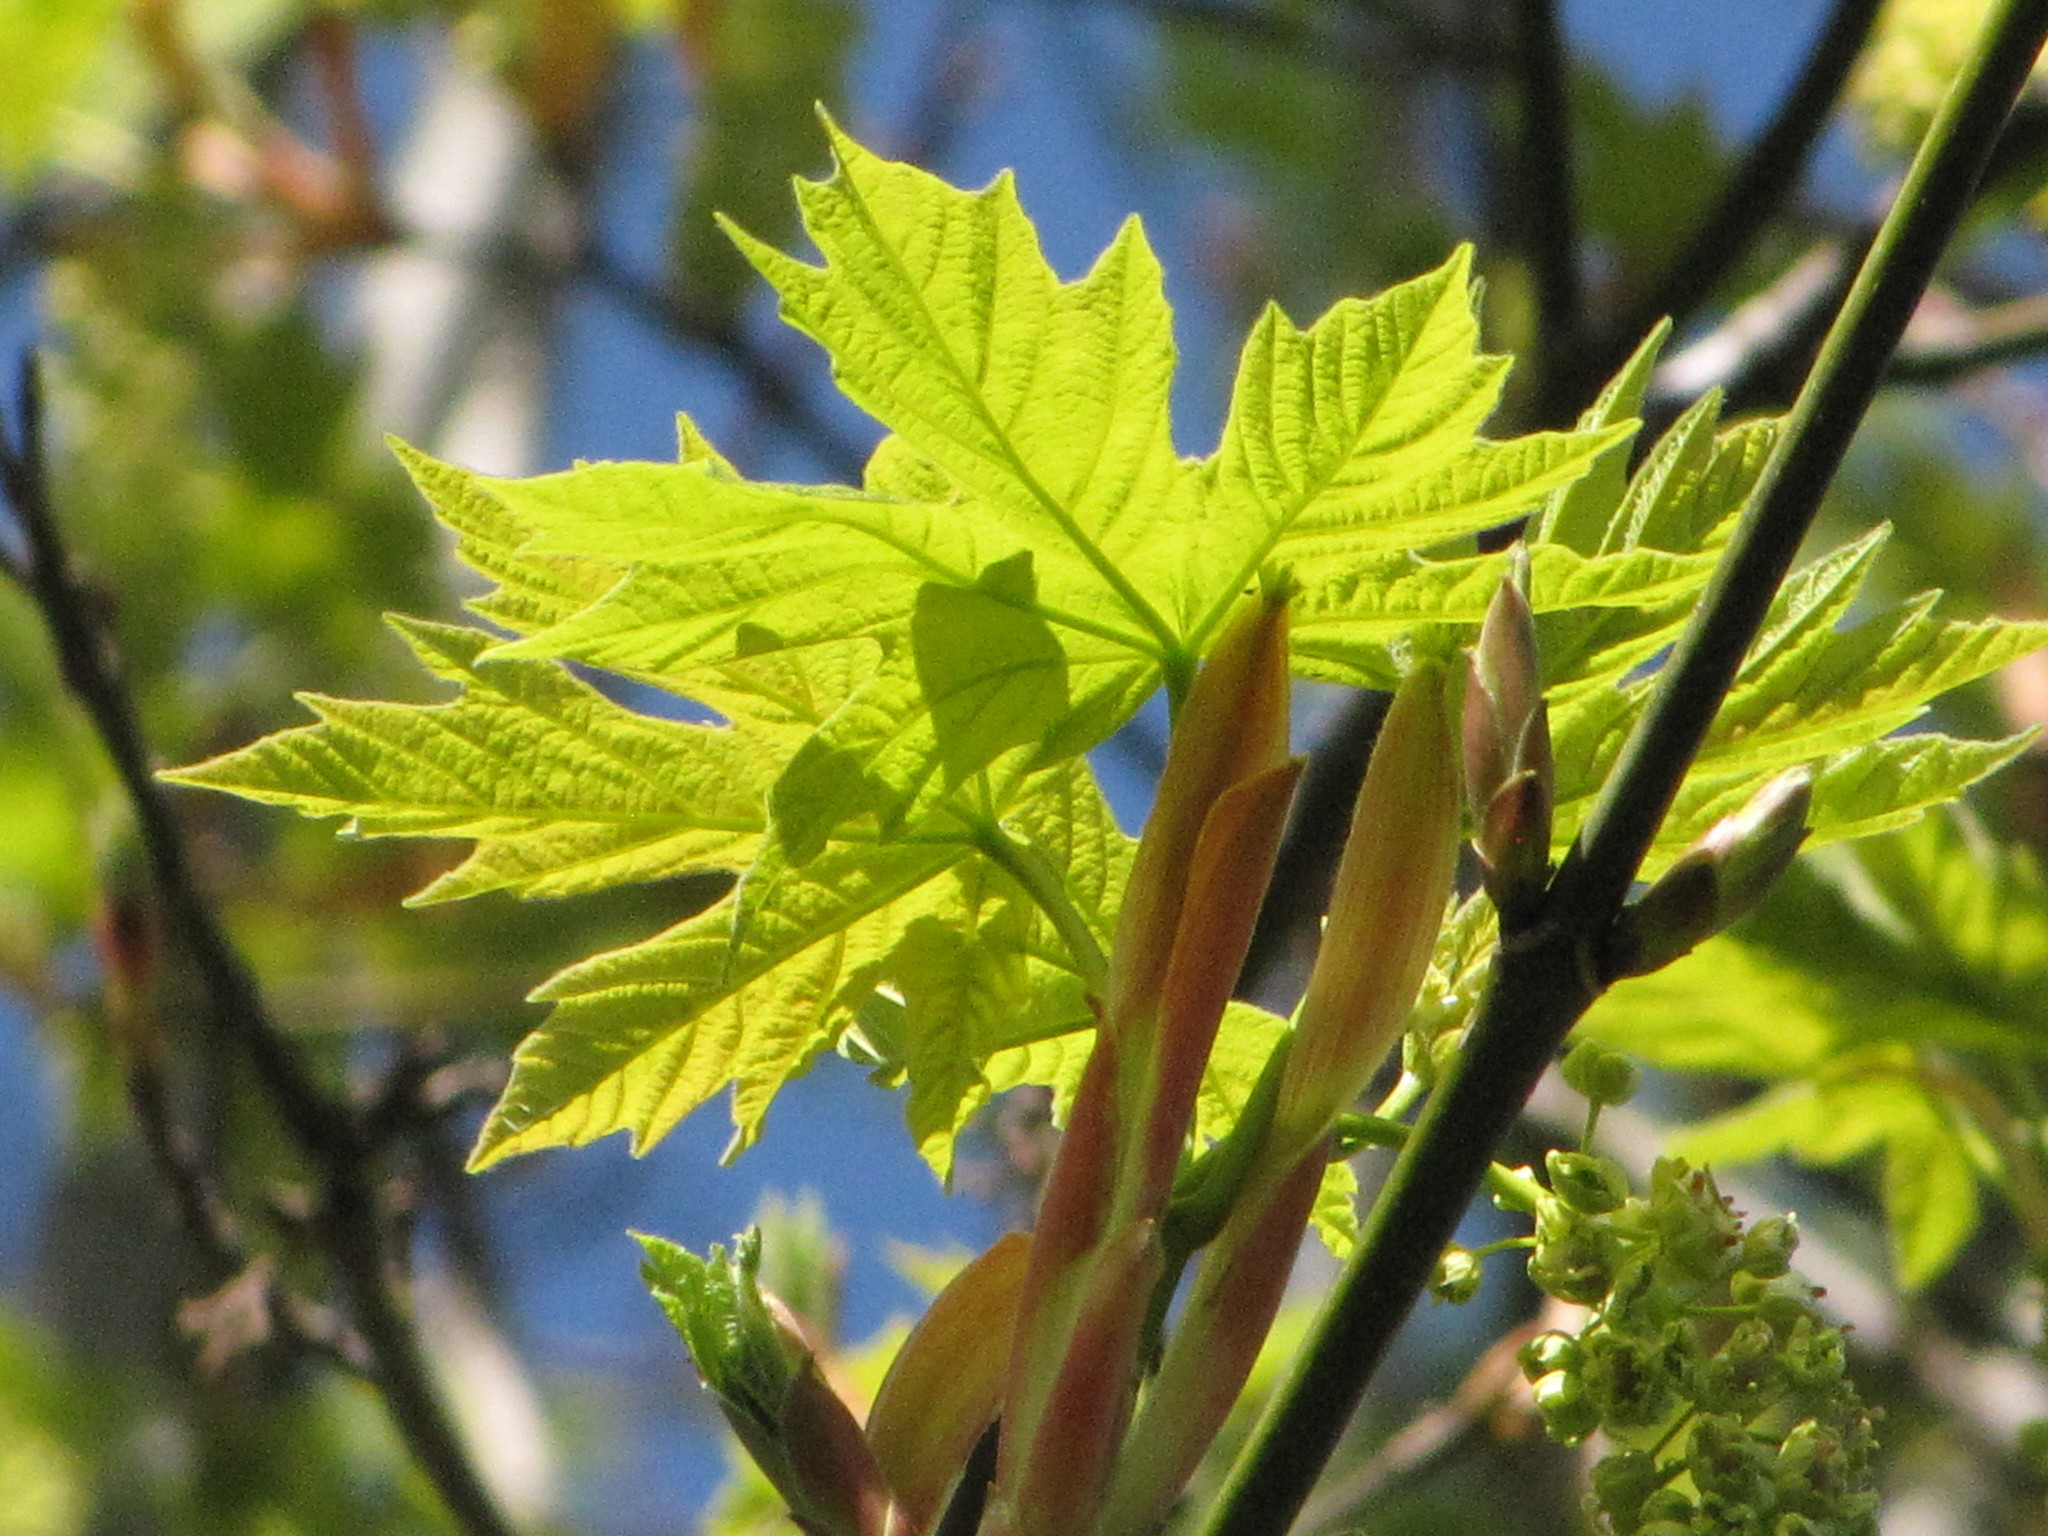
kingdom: Plantae
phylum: Tracheophyta
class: Magnoliopsida
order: Sapindales
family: Sapindaceae
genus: Acer
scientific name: Acer macrophyllum
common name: Oregon maple
